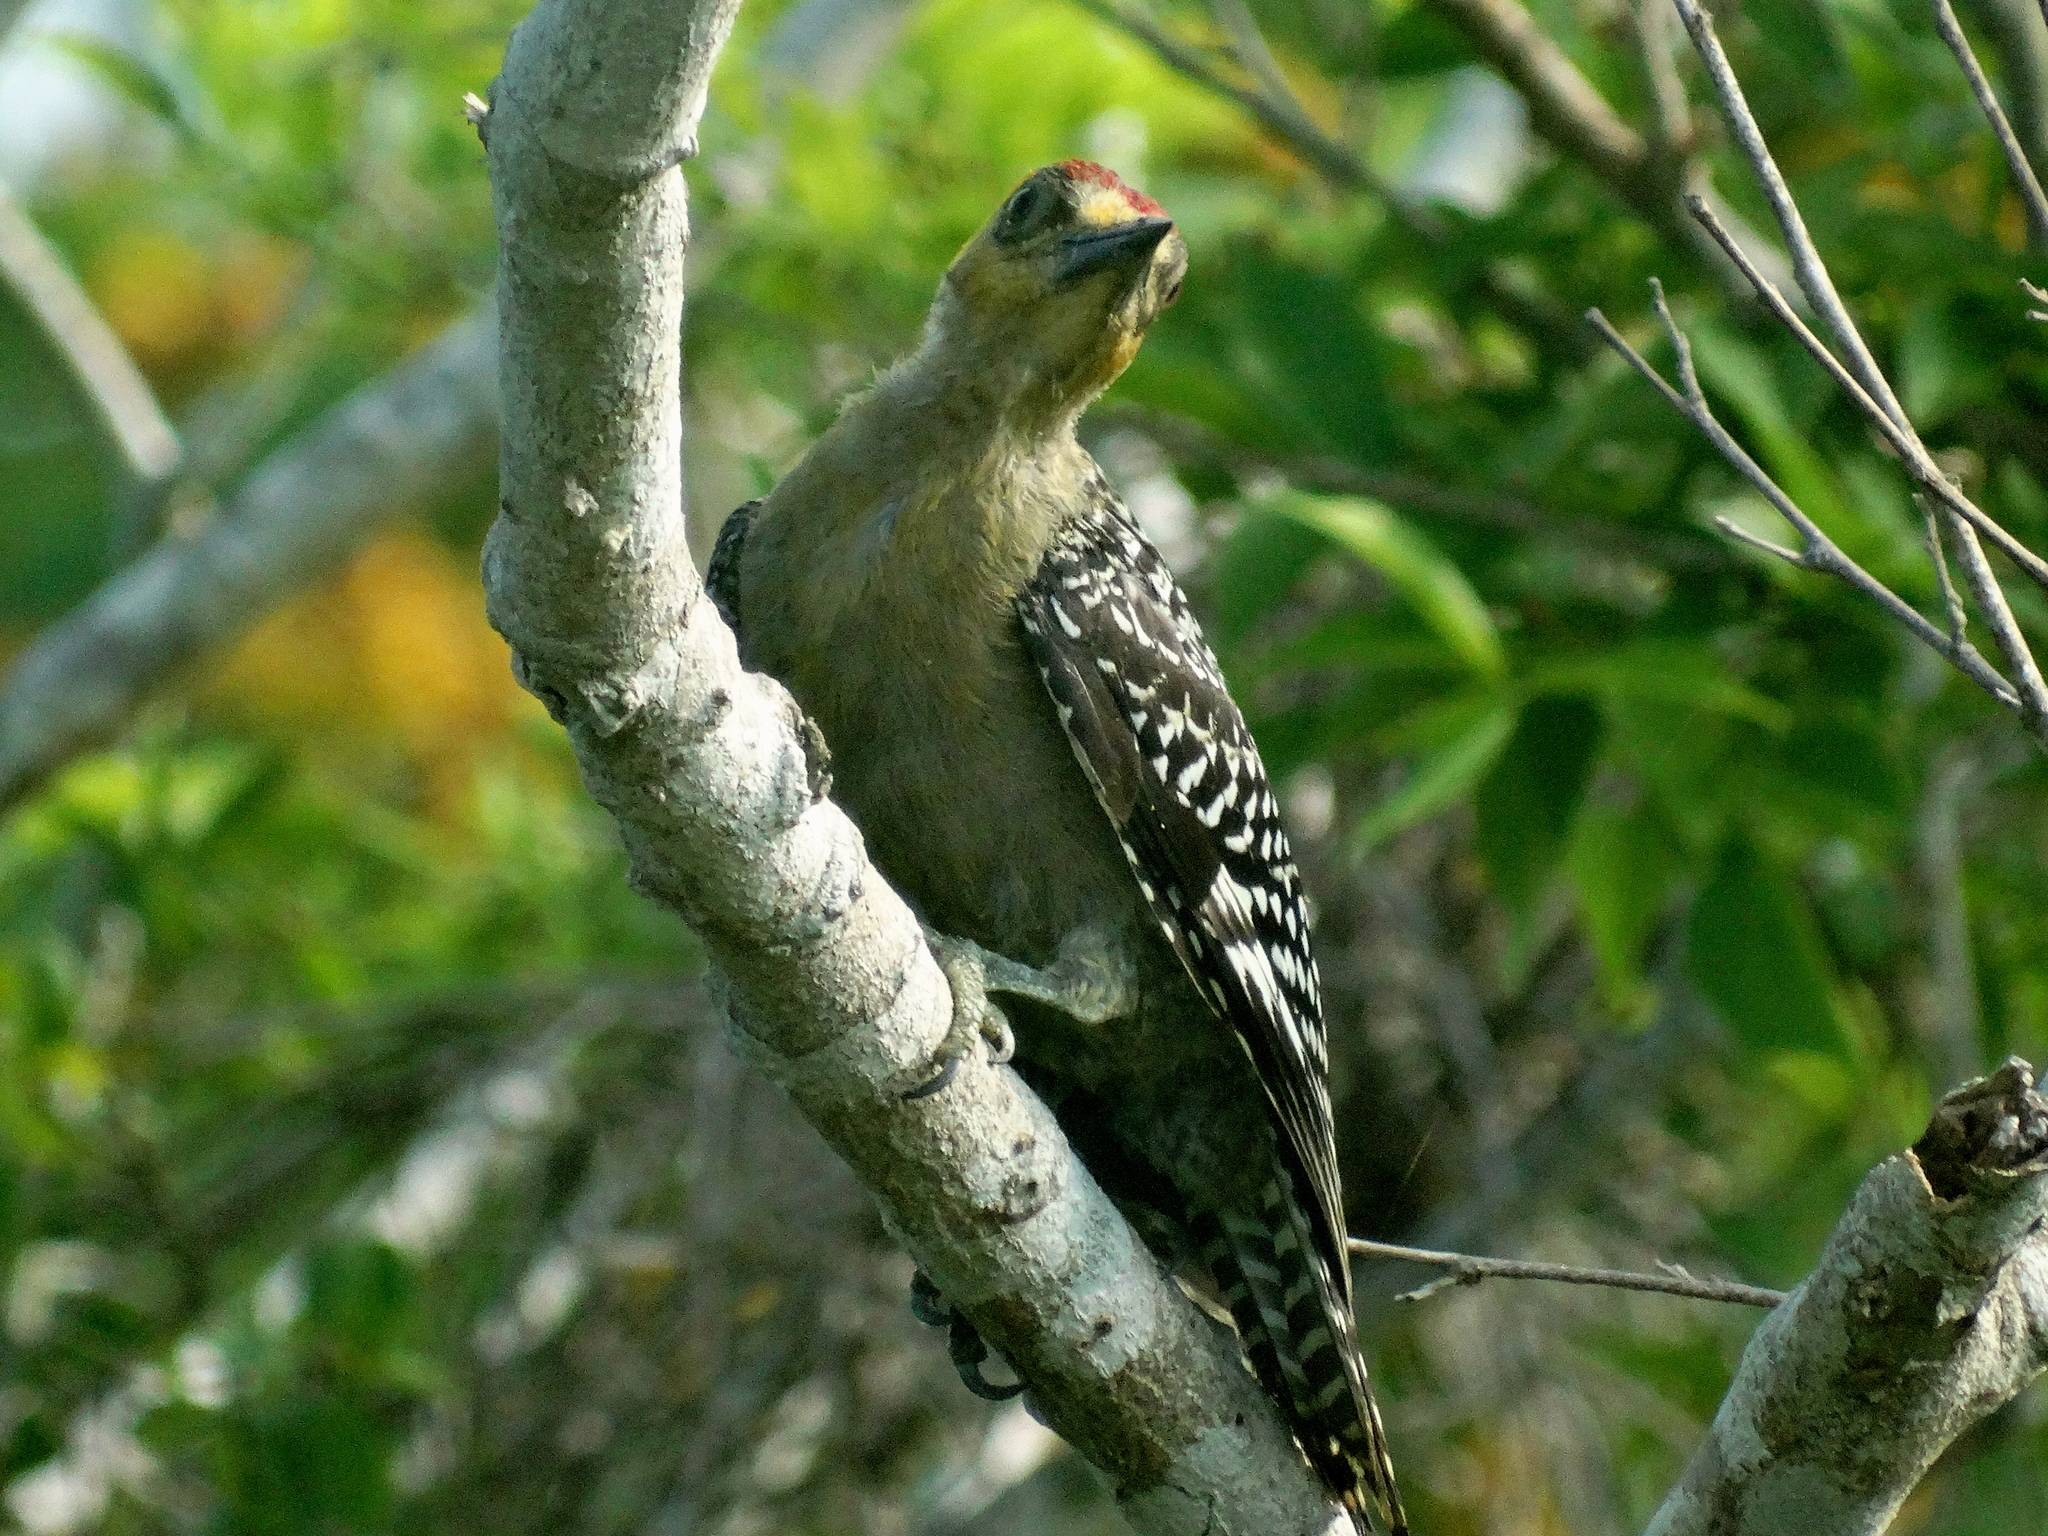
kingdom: Animalia
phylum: Chordata
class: Aves
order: Piciformes
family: Picidae
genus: Melanerpes
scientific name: Melanerpes chrysogenys
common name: Golden-cheeked woodpecker
